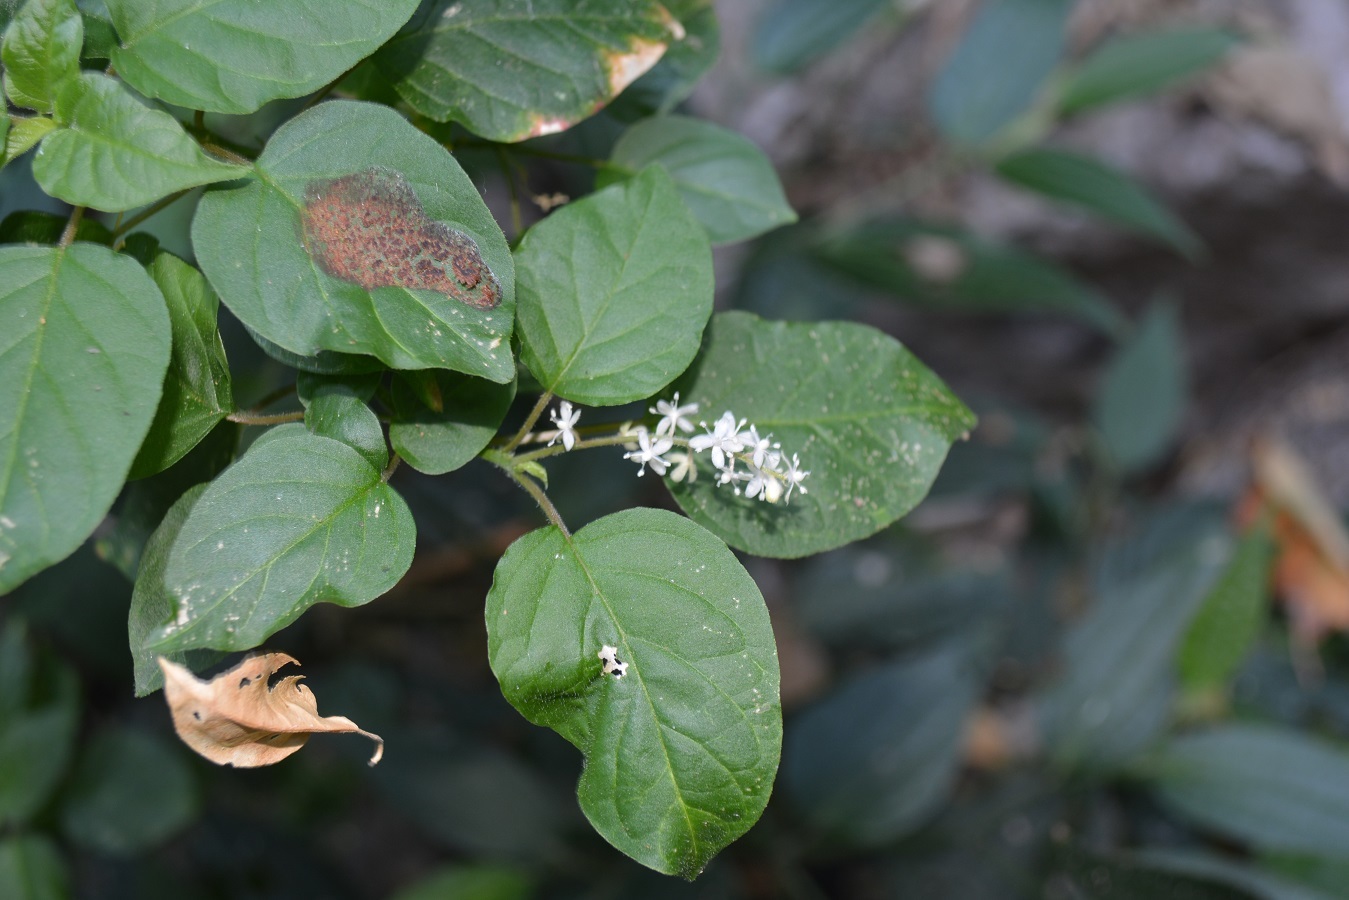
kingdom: Plantae
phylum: Tracheophyta
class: Magnoliopsida
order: Caryophyllales
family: Phytolaccaceae
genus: Rivina
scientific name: Rivina humilis
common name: Rougeplant
